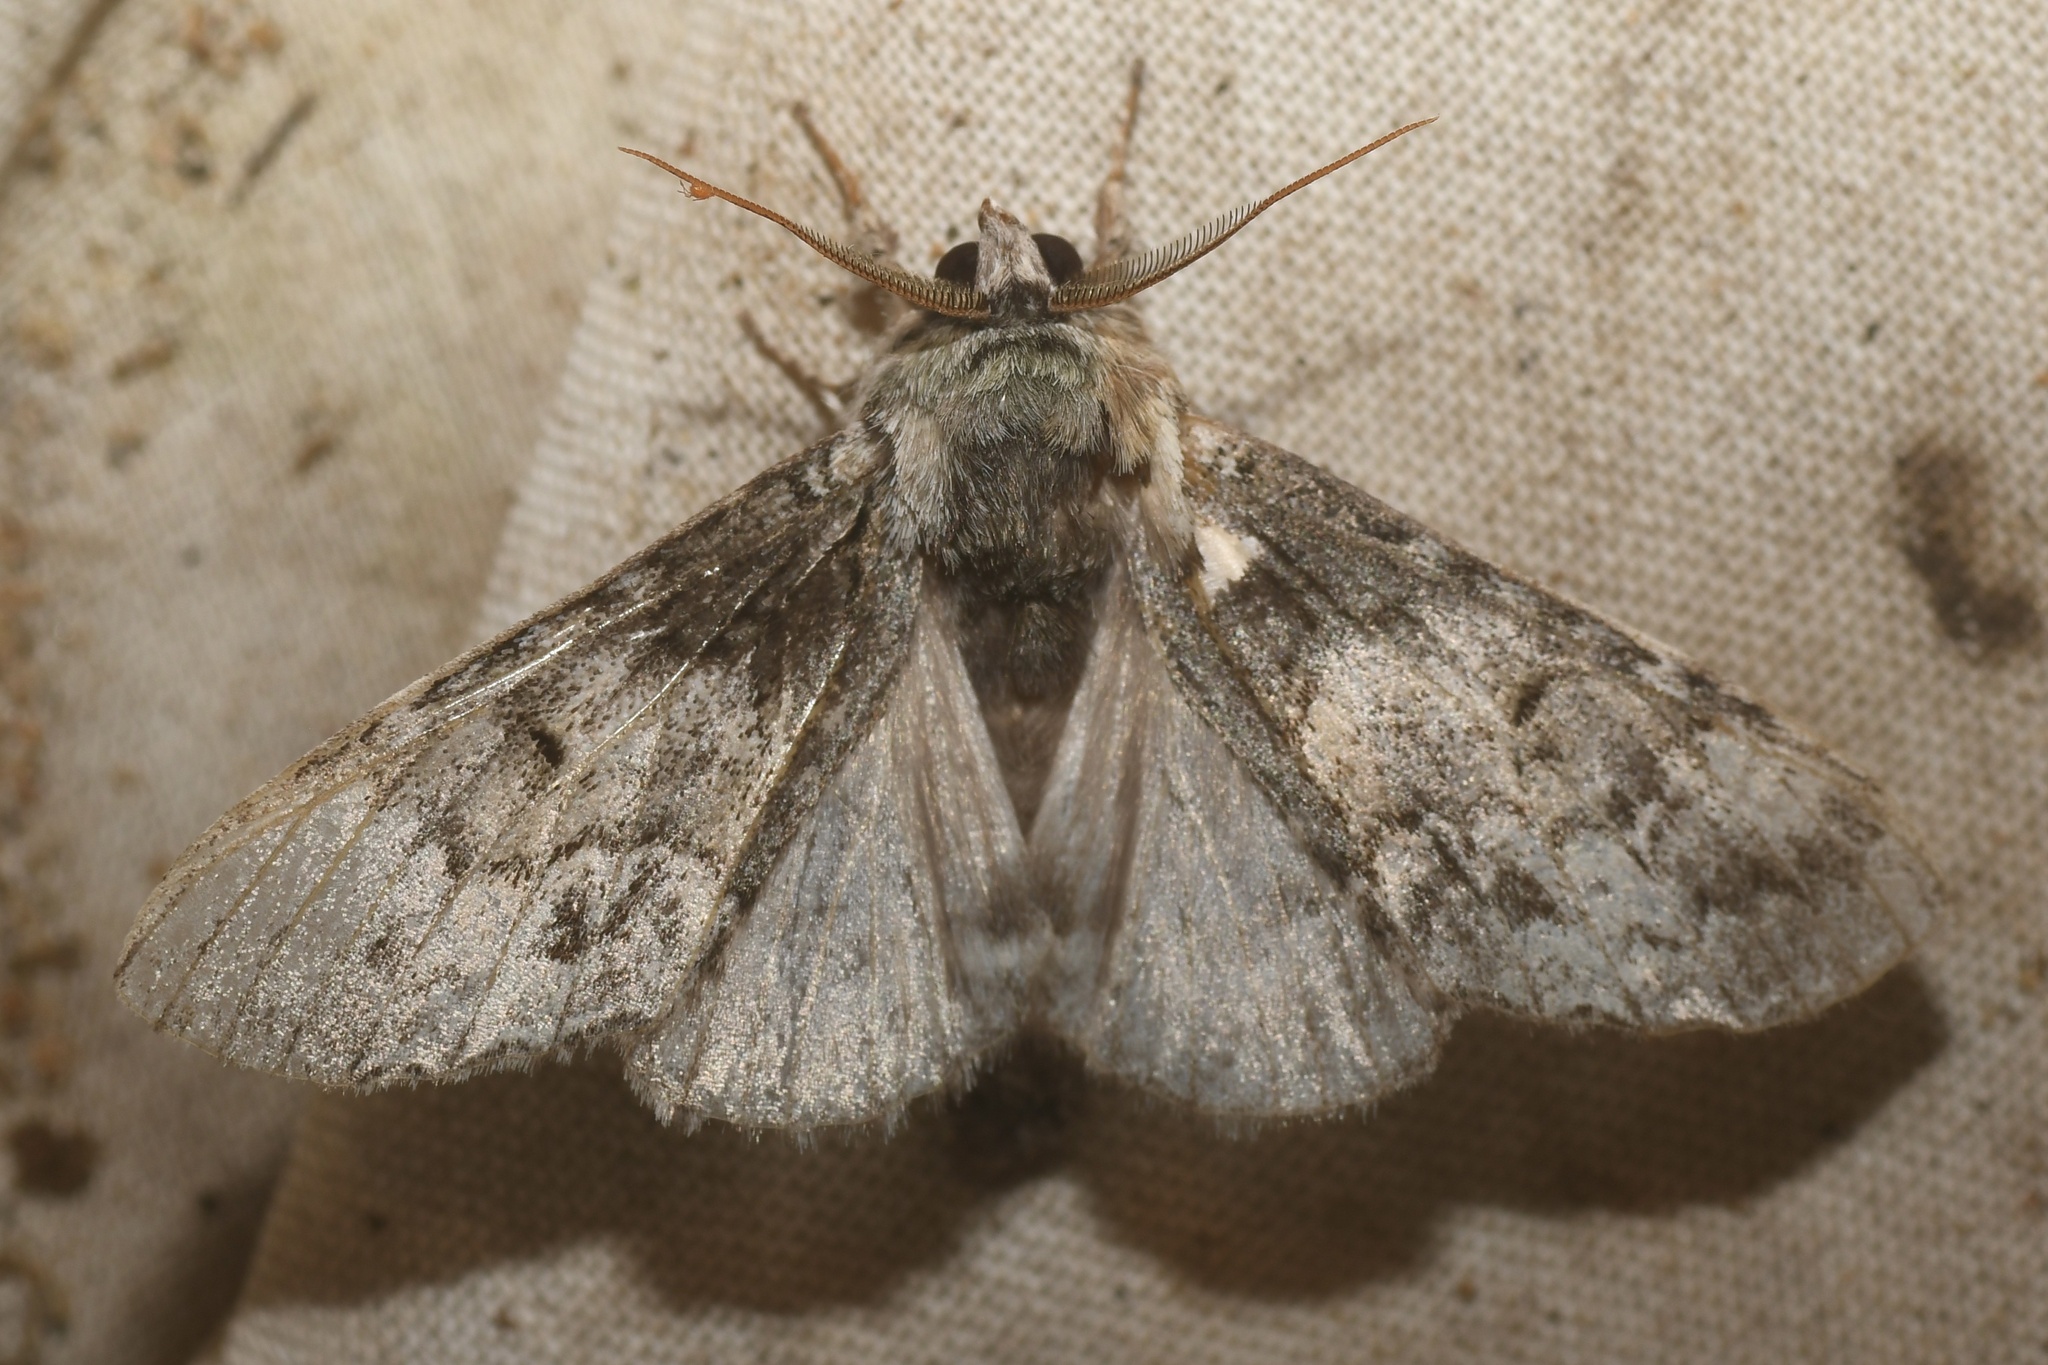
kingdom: Animalia
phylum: Arthropoda
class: Insecta
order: Lepidoptera
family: Notodontidae
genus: Macrurocampa
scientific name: Macrurocampa marthesia
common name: Mottled prominent
